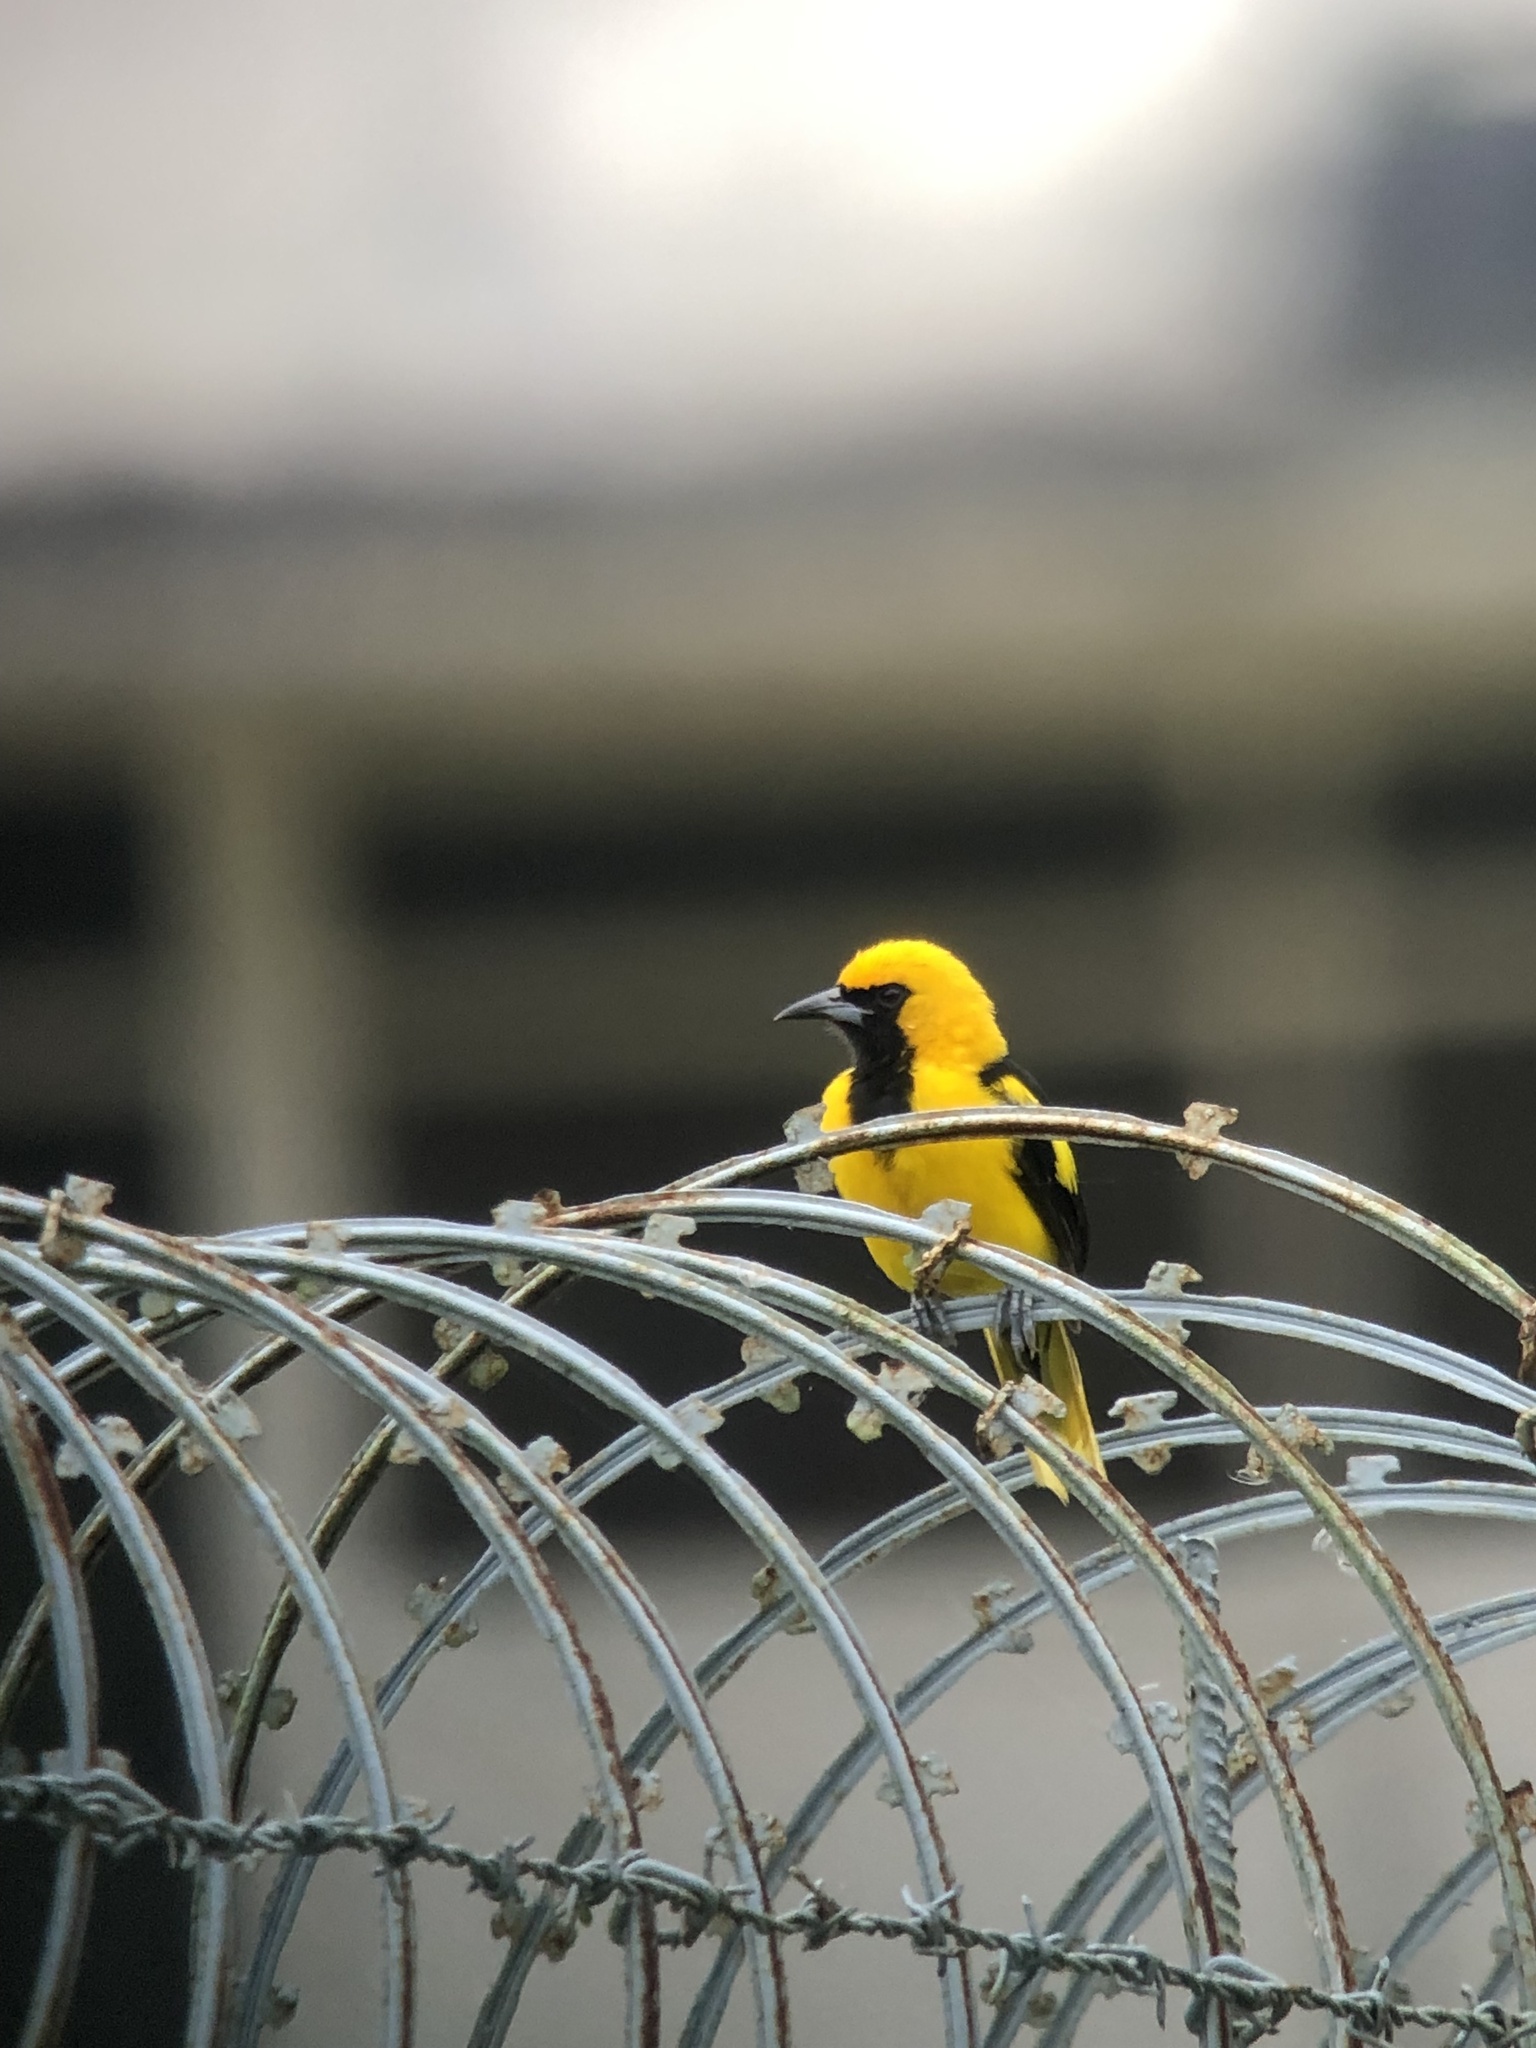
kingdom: Animalia
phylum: Chordata
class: Aves
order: Passeriformes
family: Icteridae
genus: Icterus
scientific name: Icterus mesomelas
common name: Yellow-tailed oriole
